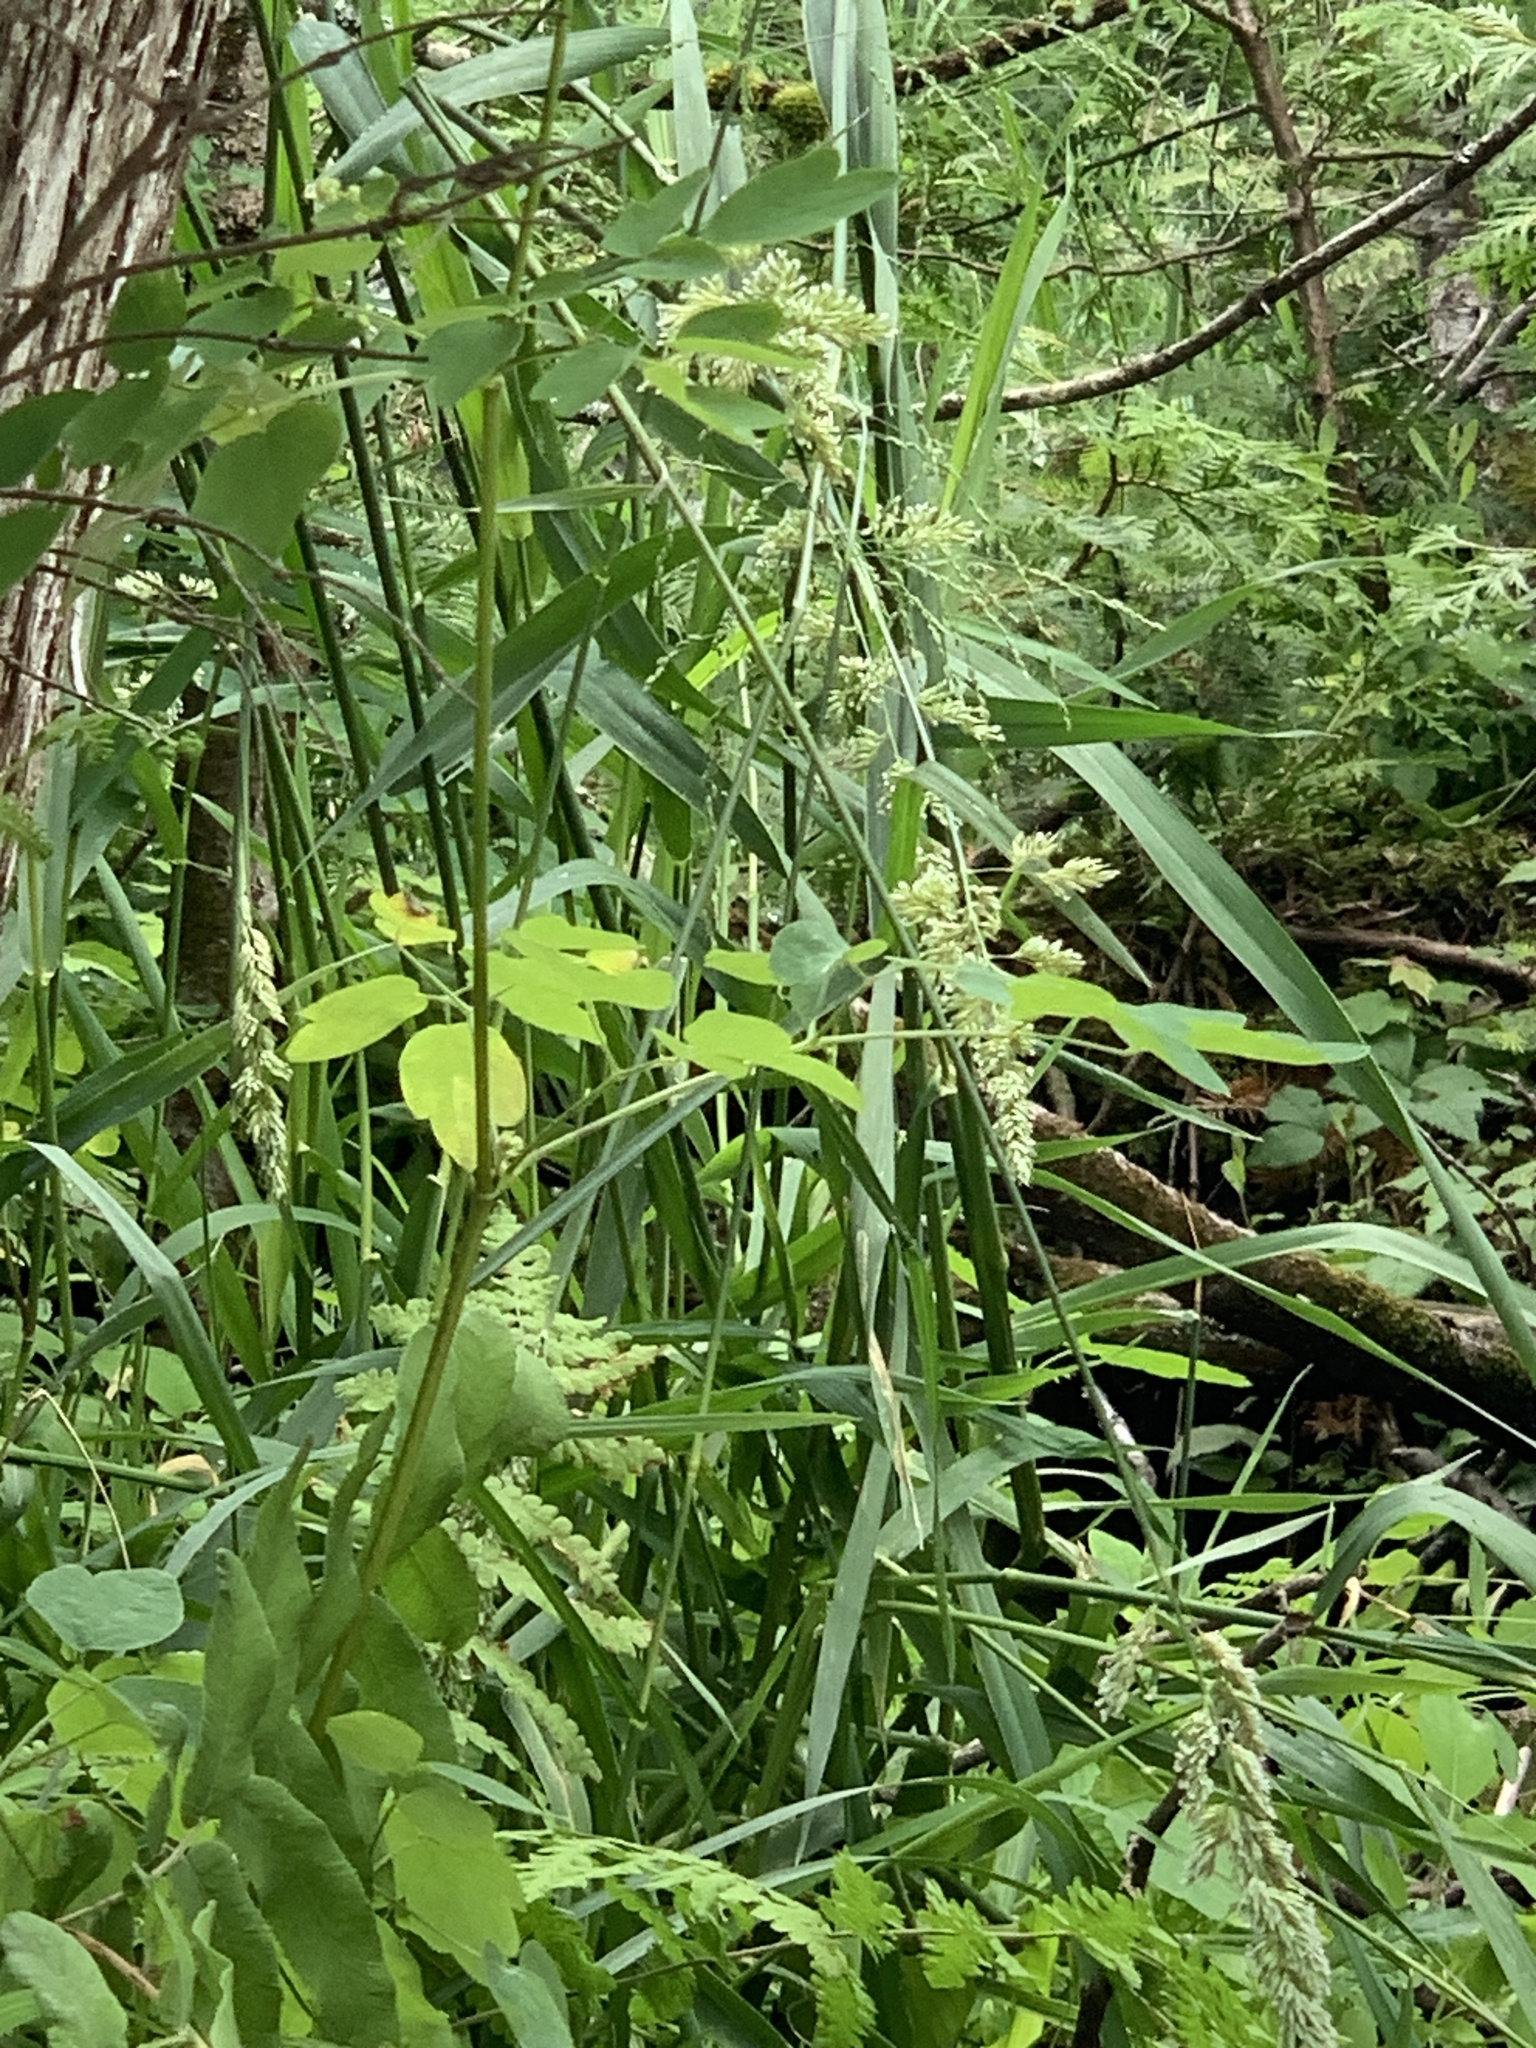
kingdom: Plantae
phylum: Tracheophyta
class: Liliopsida
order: Poales
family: Poaceae
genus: Phalaris
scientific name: Phalaris arundinacea
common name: Reed canary-grass
